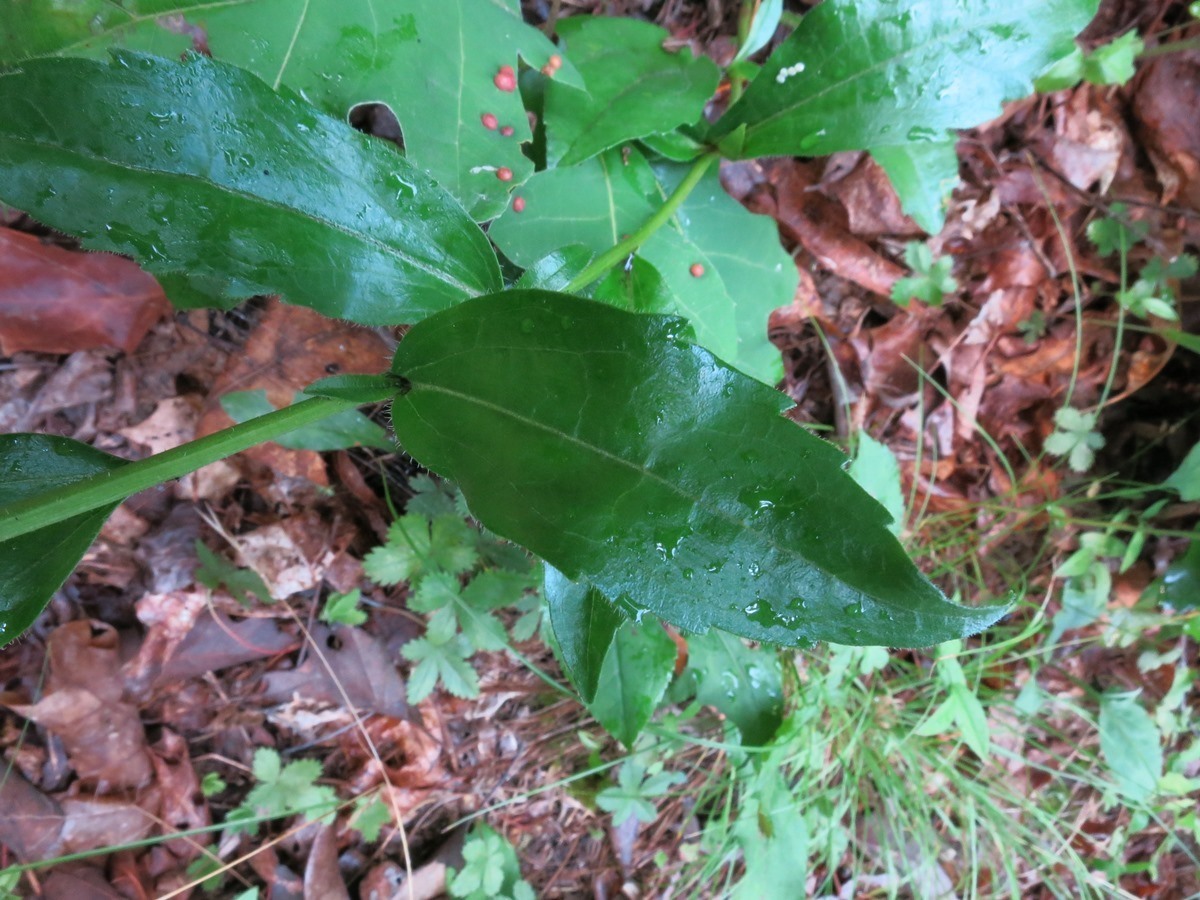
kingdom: Plantae
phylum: Tracheophyta
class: Magnoliopsida
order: Asterales
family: Asteraceae
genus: Sericocarpus
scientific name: Sericocarpus asteroides
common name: Toothed white-top aster
